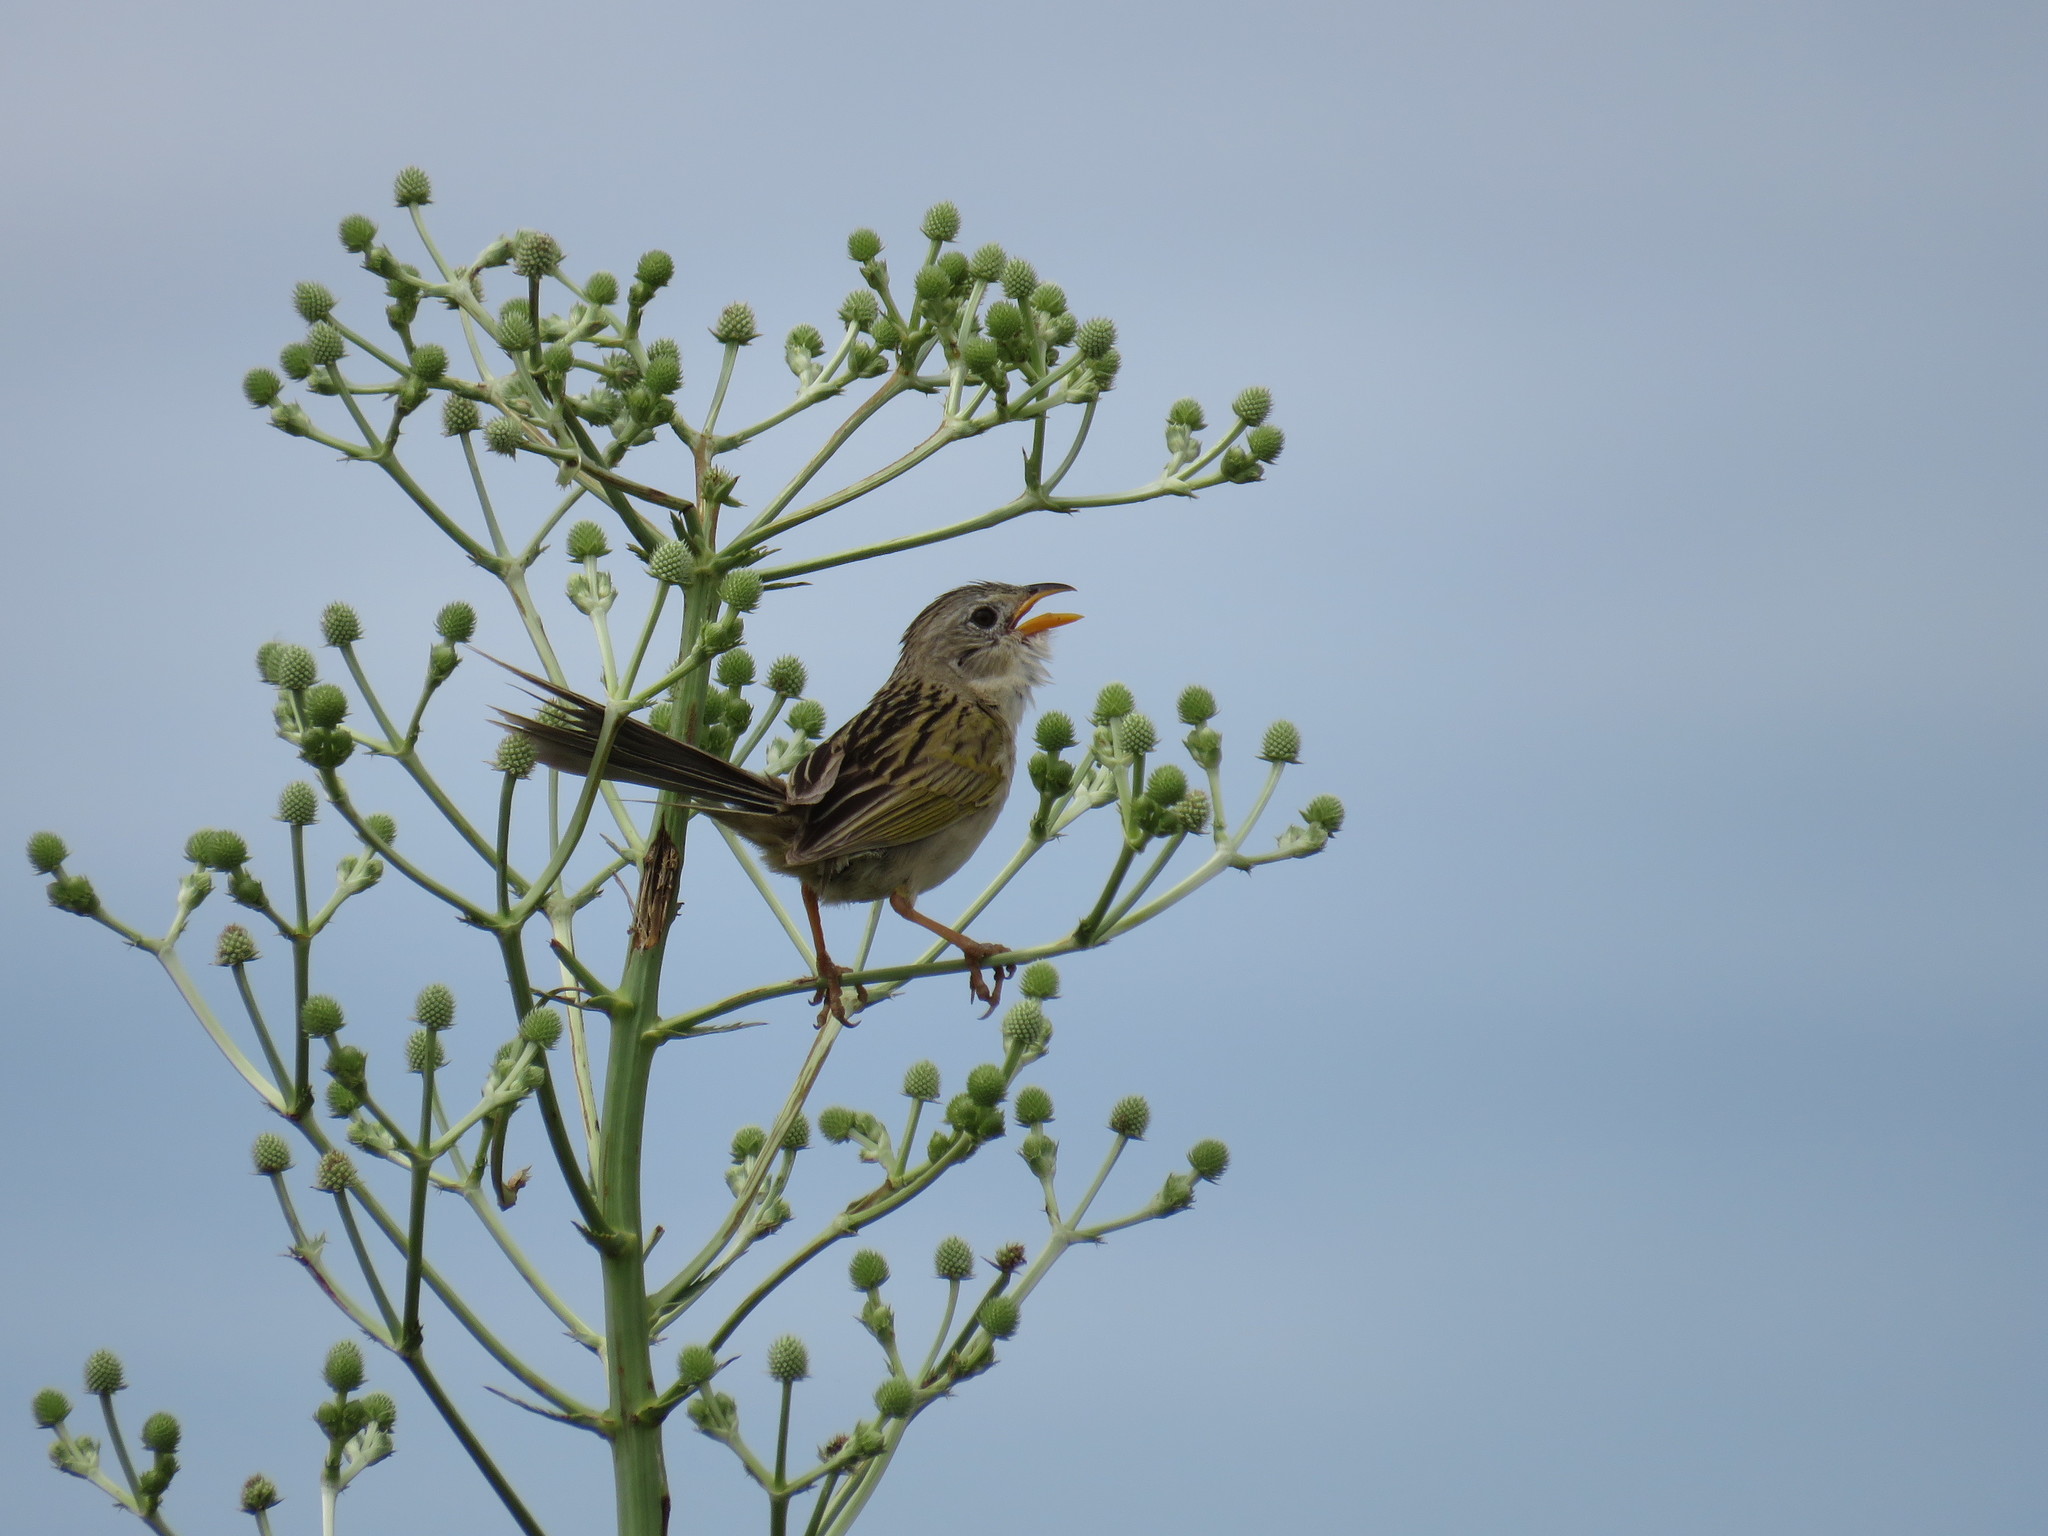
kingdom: Animalia
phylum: Chordata
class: Aves
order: Passeriformes
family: Thraupidae
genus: Emberizoides
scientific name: Emberizoides ypiranganus
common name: Lesser grass finch
